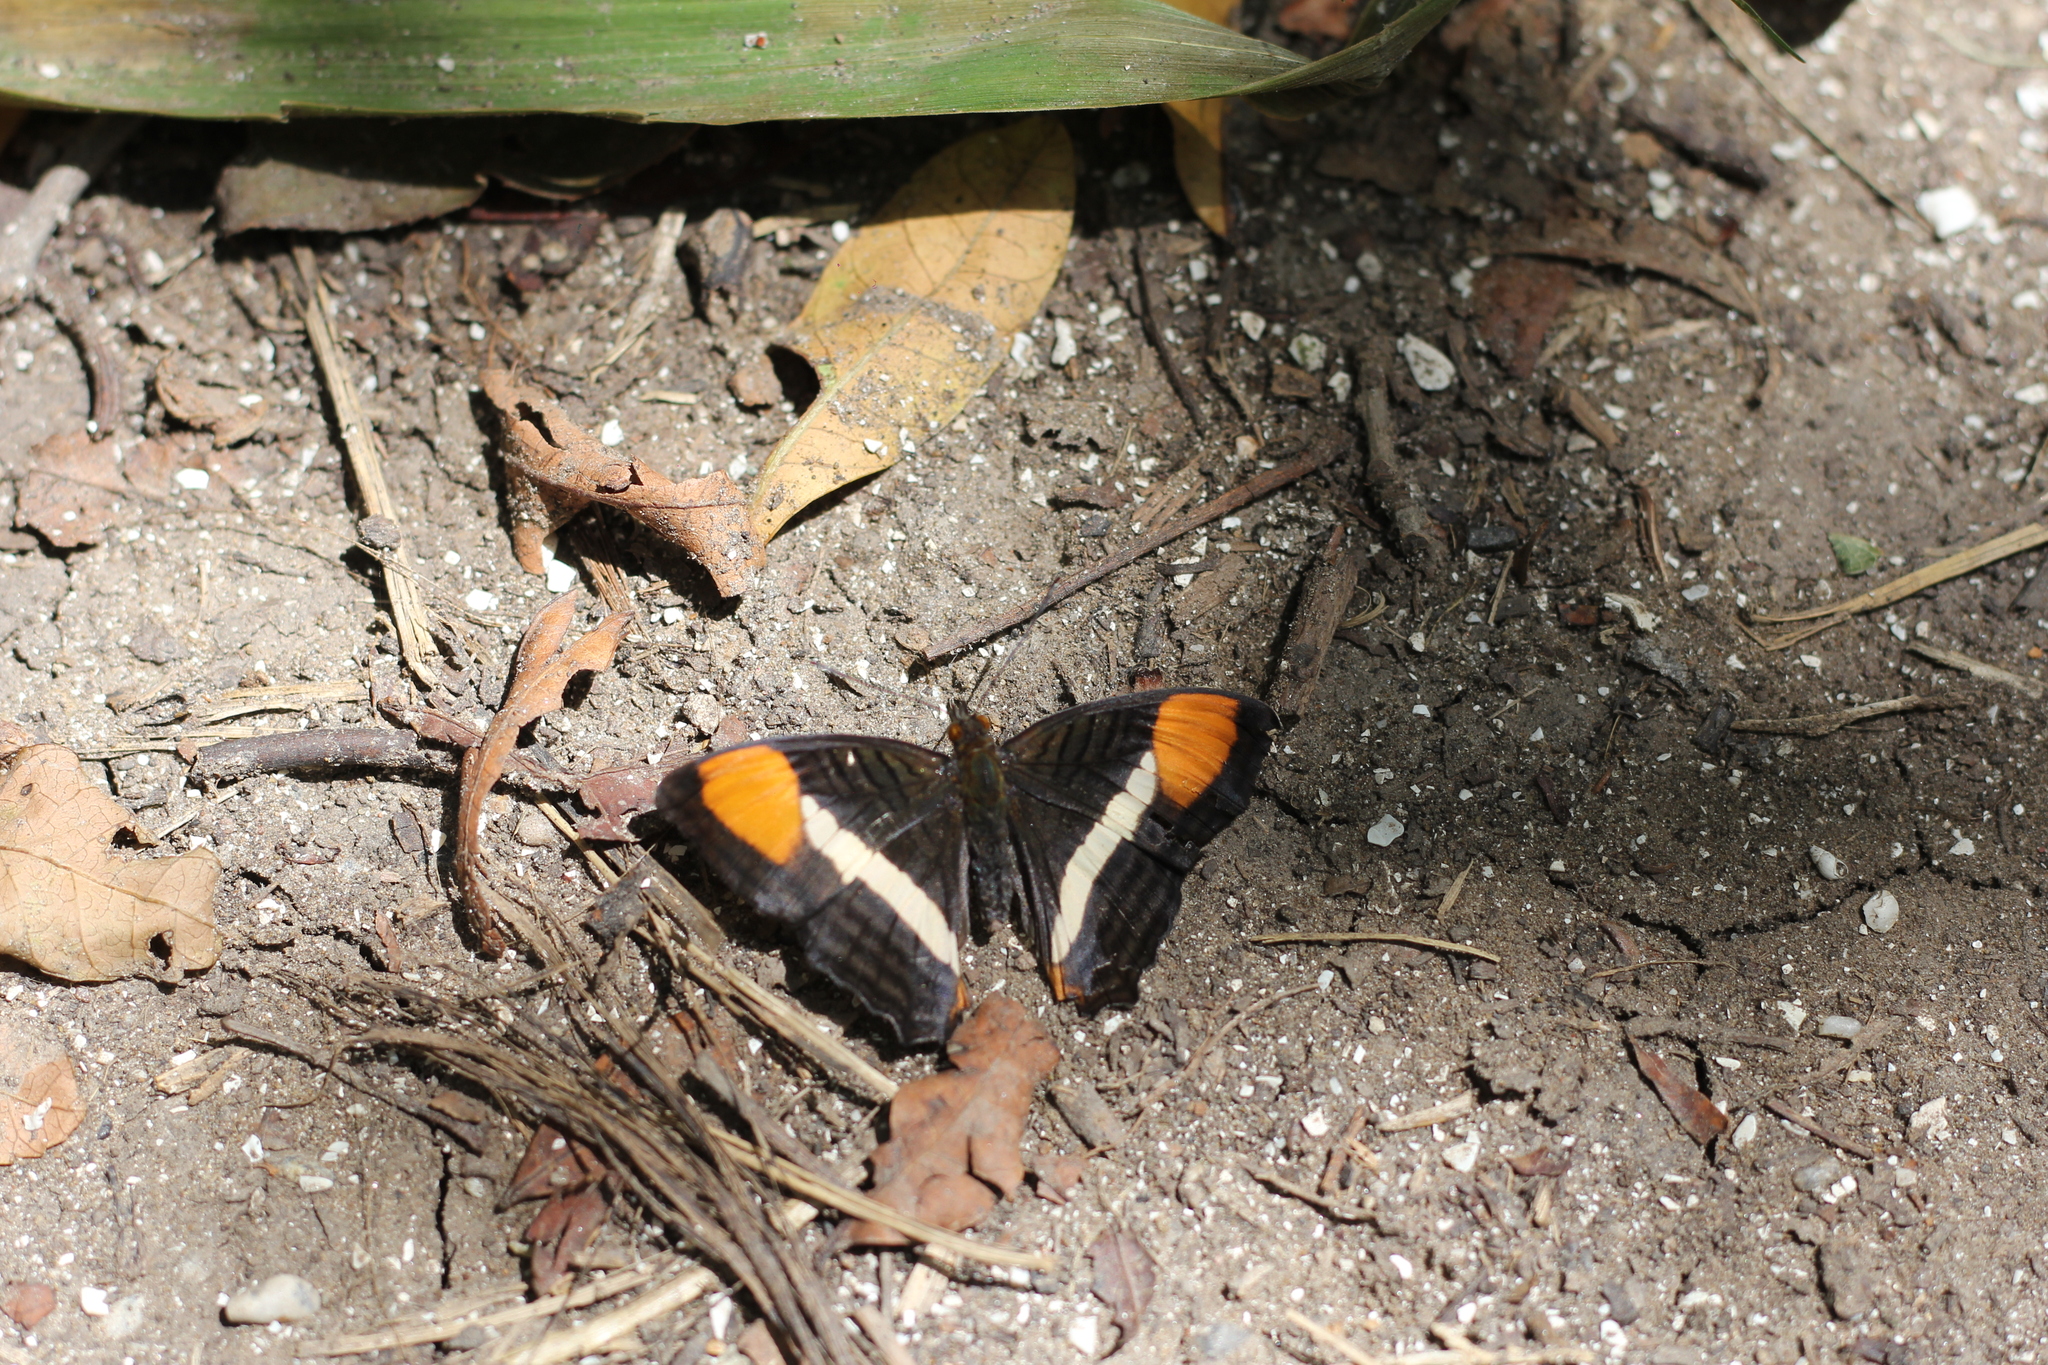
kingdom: Animalia
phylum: Arthropoda
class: Insecta
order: Lepidoptera
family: Nymphalidae
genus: Limenitis
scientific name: Limenitis syma
